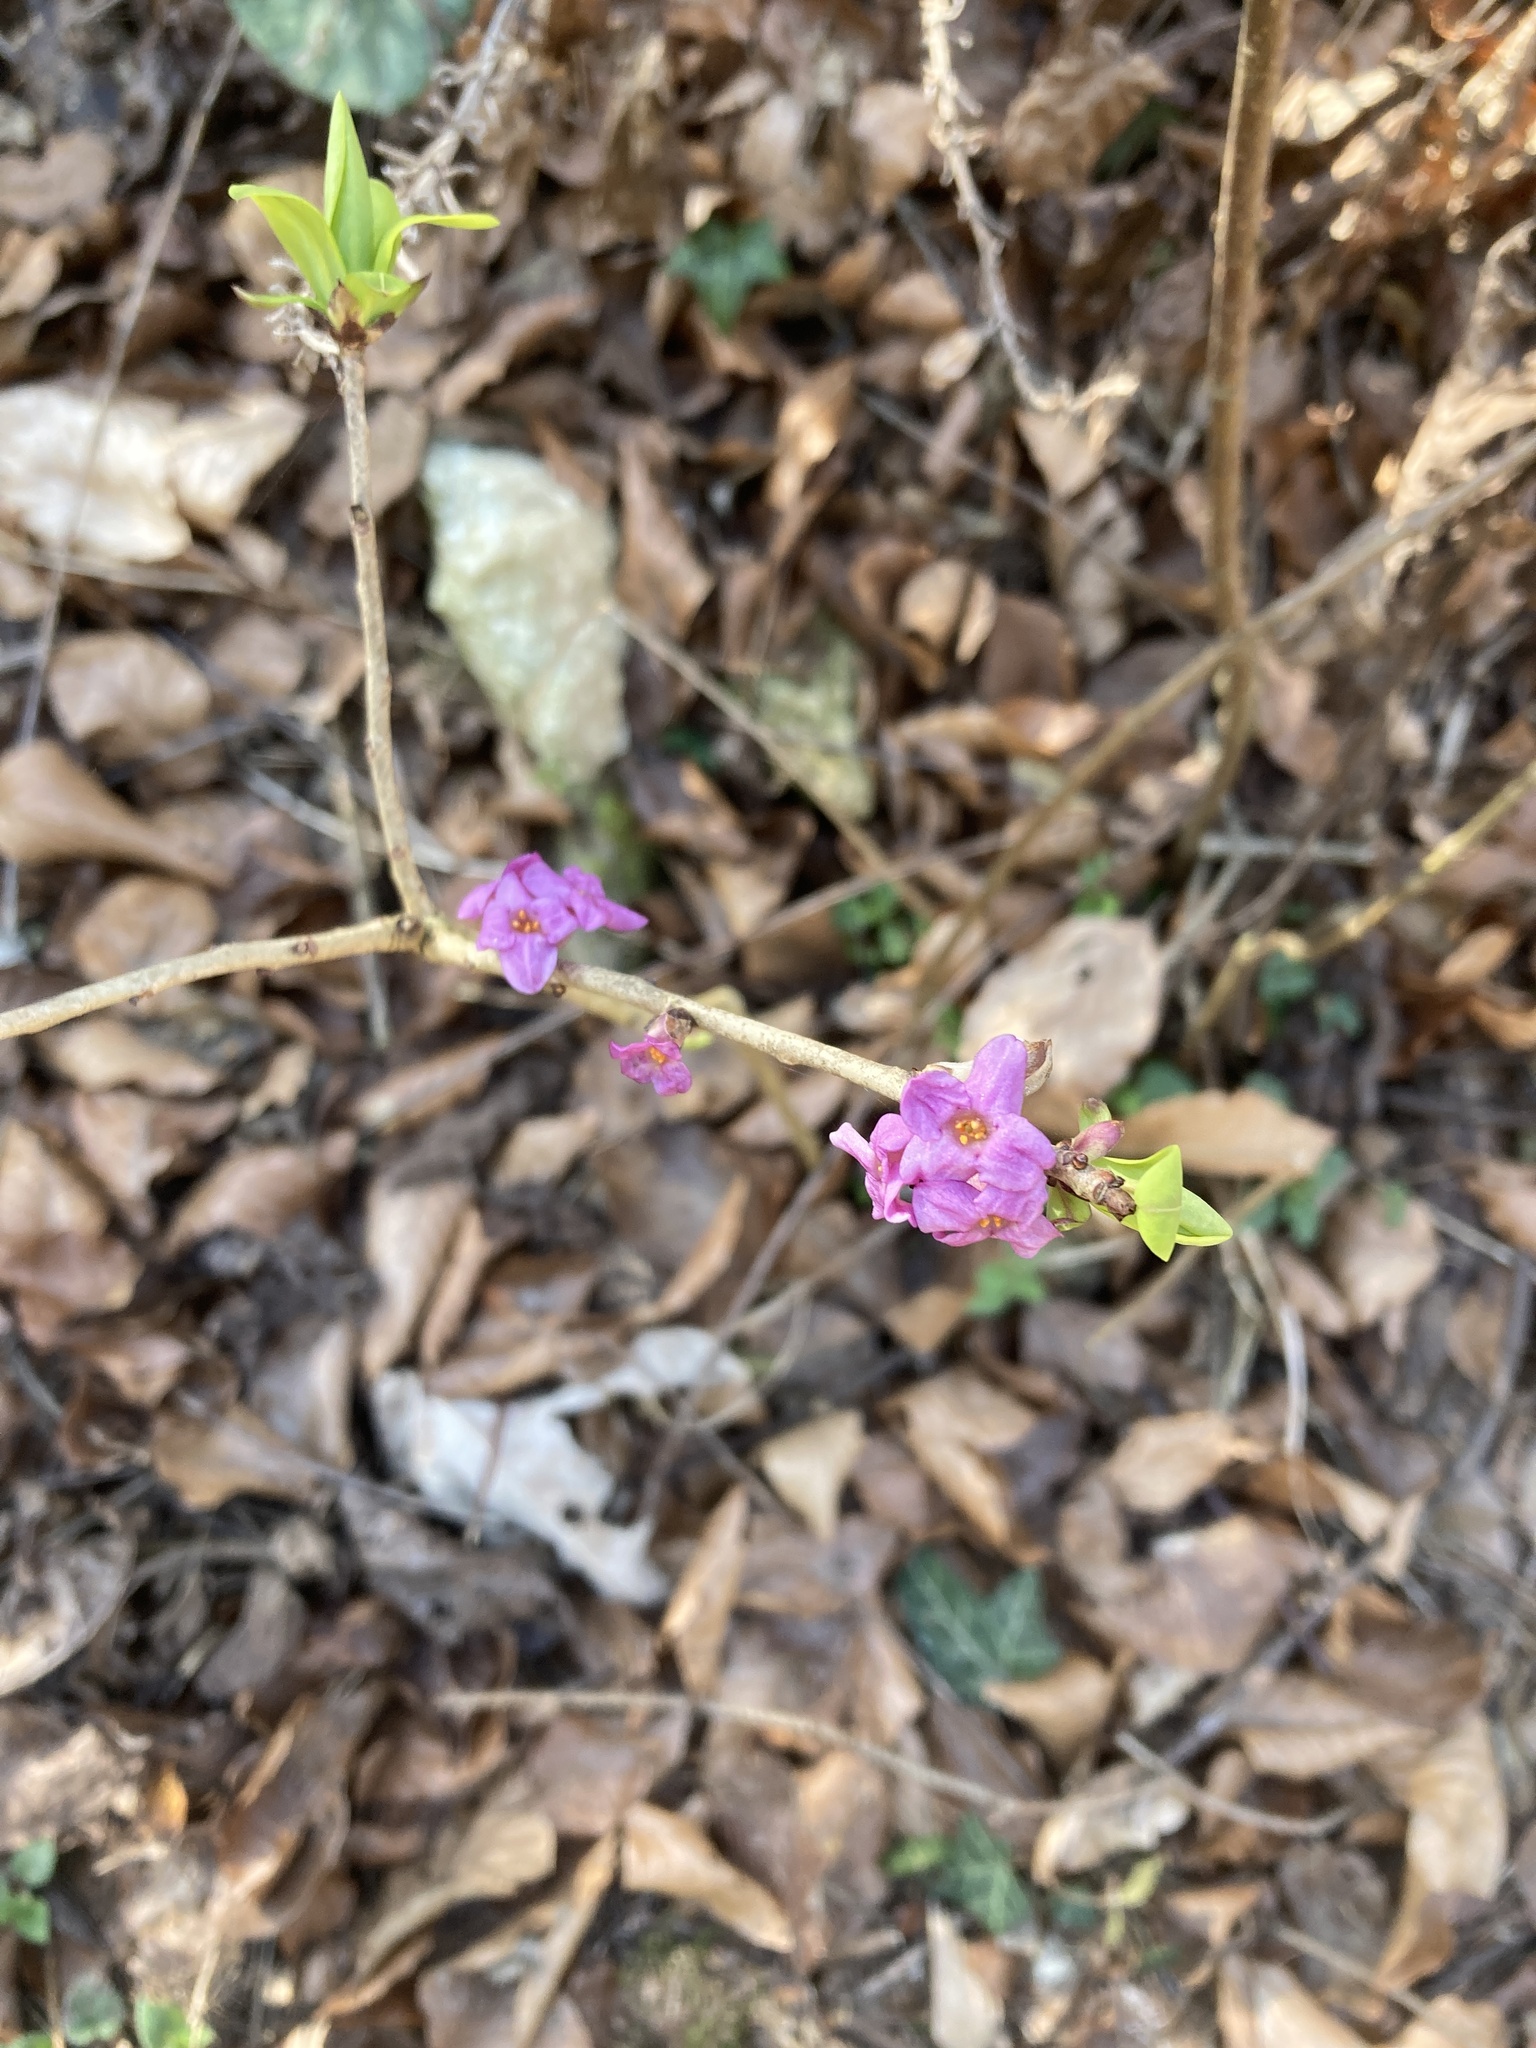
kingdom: Plantae
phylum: Tracheophyta
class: Magnoliopsida
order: Malvales
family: Thymelaeaceae
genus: Daphne
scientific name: Daphne mezereum
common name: Mezereon
